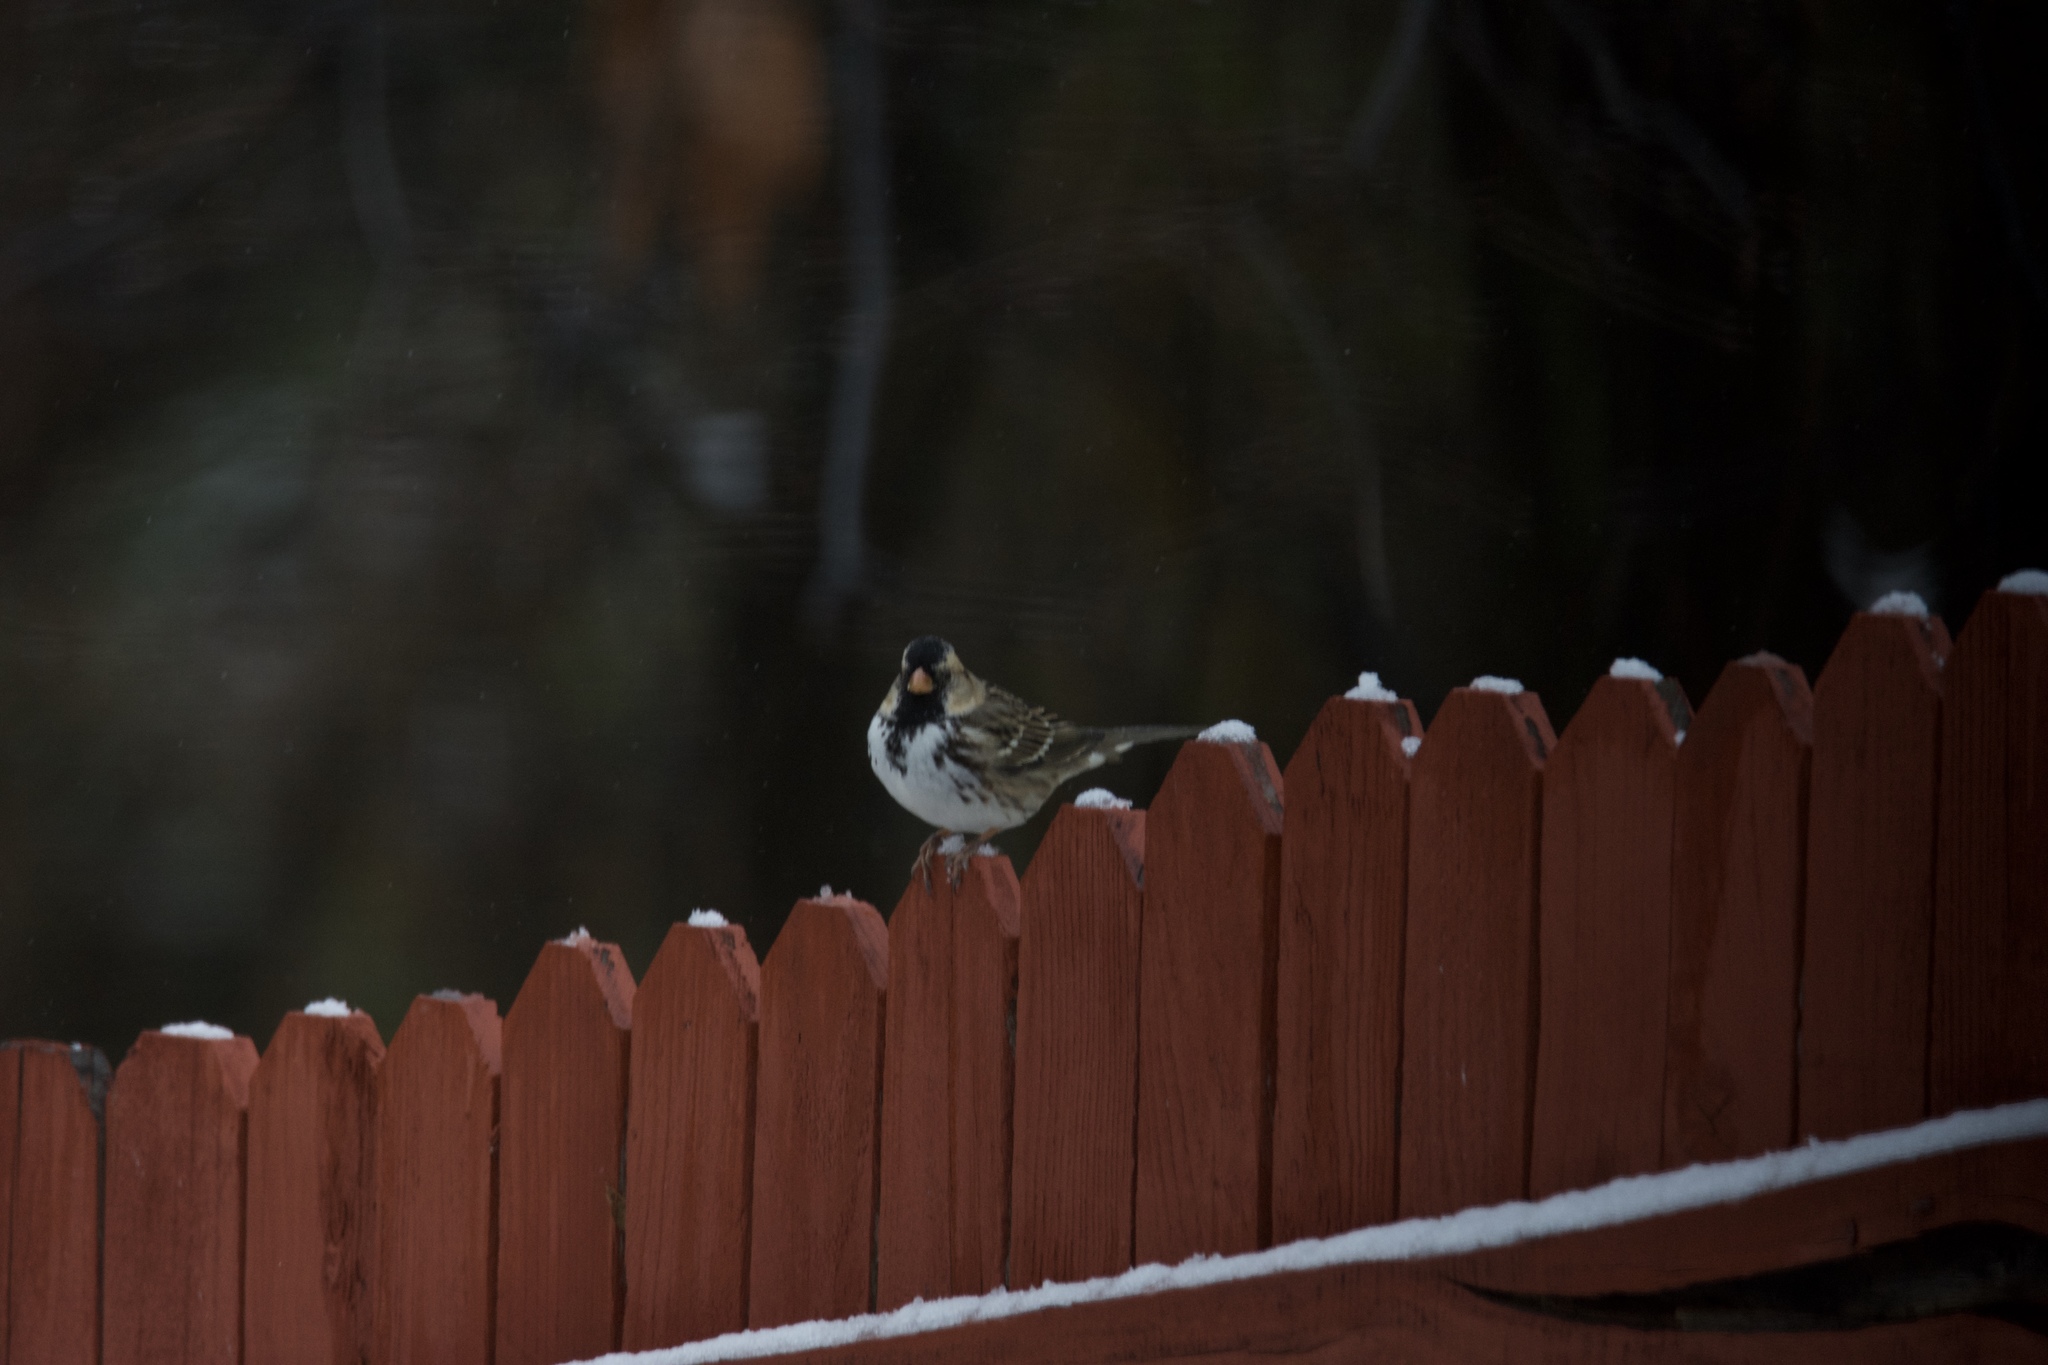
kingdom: Animalia
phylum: Chordata
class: Aves
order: Passeriformes
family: Passerellidae
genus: Zonotrichia
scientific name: Zonotrichia querula
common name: Harris's sparrow
